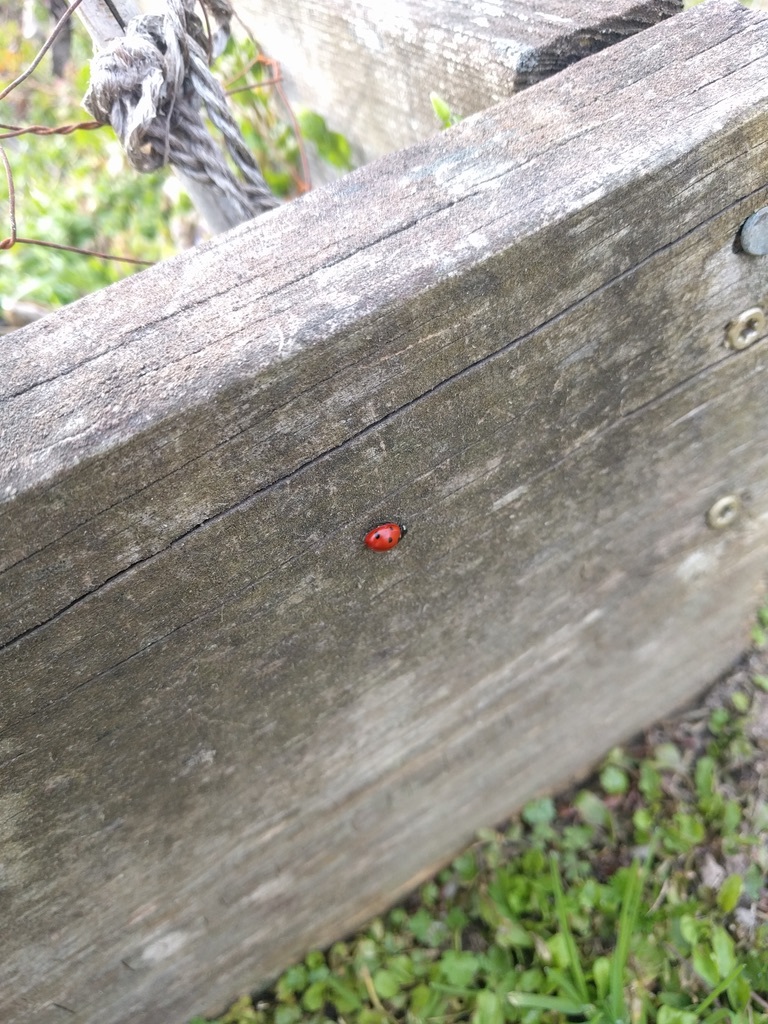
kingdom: Animalia
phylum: Arthropoda
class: Insecta
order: Coleoptera
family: Coccinellidae
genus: Coccinella
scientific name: Coccinella septempunctata
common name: Sevenspotted lady beetle
